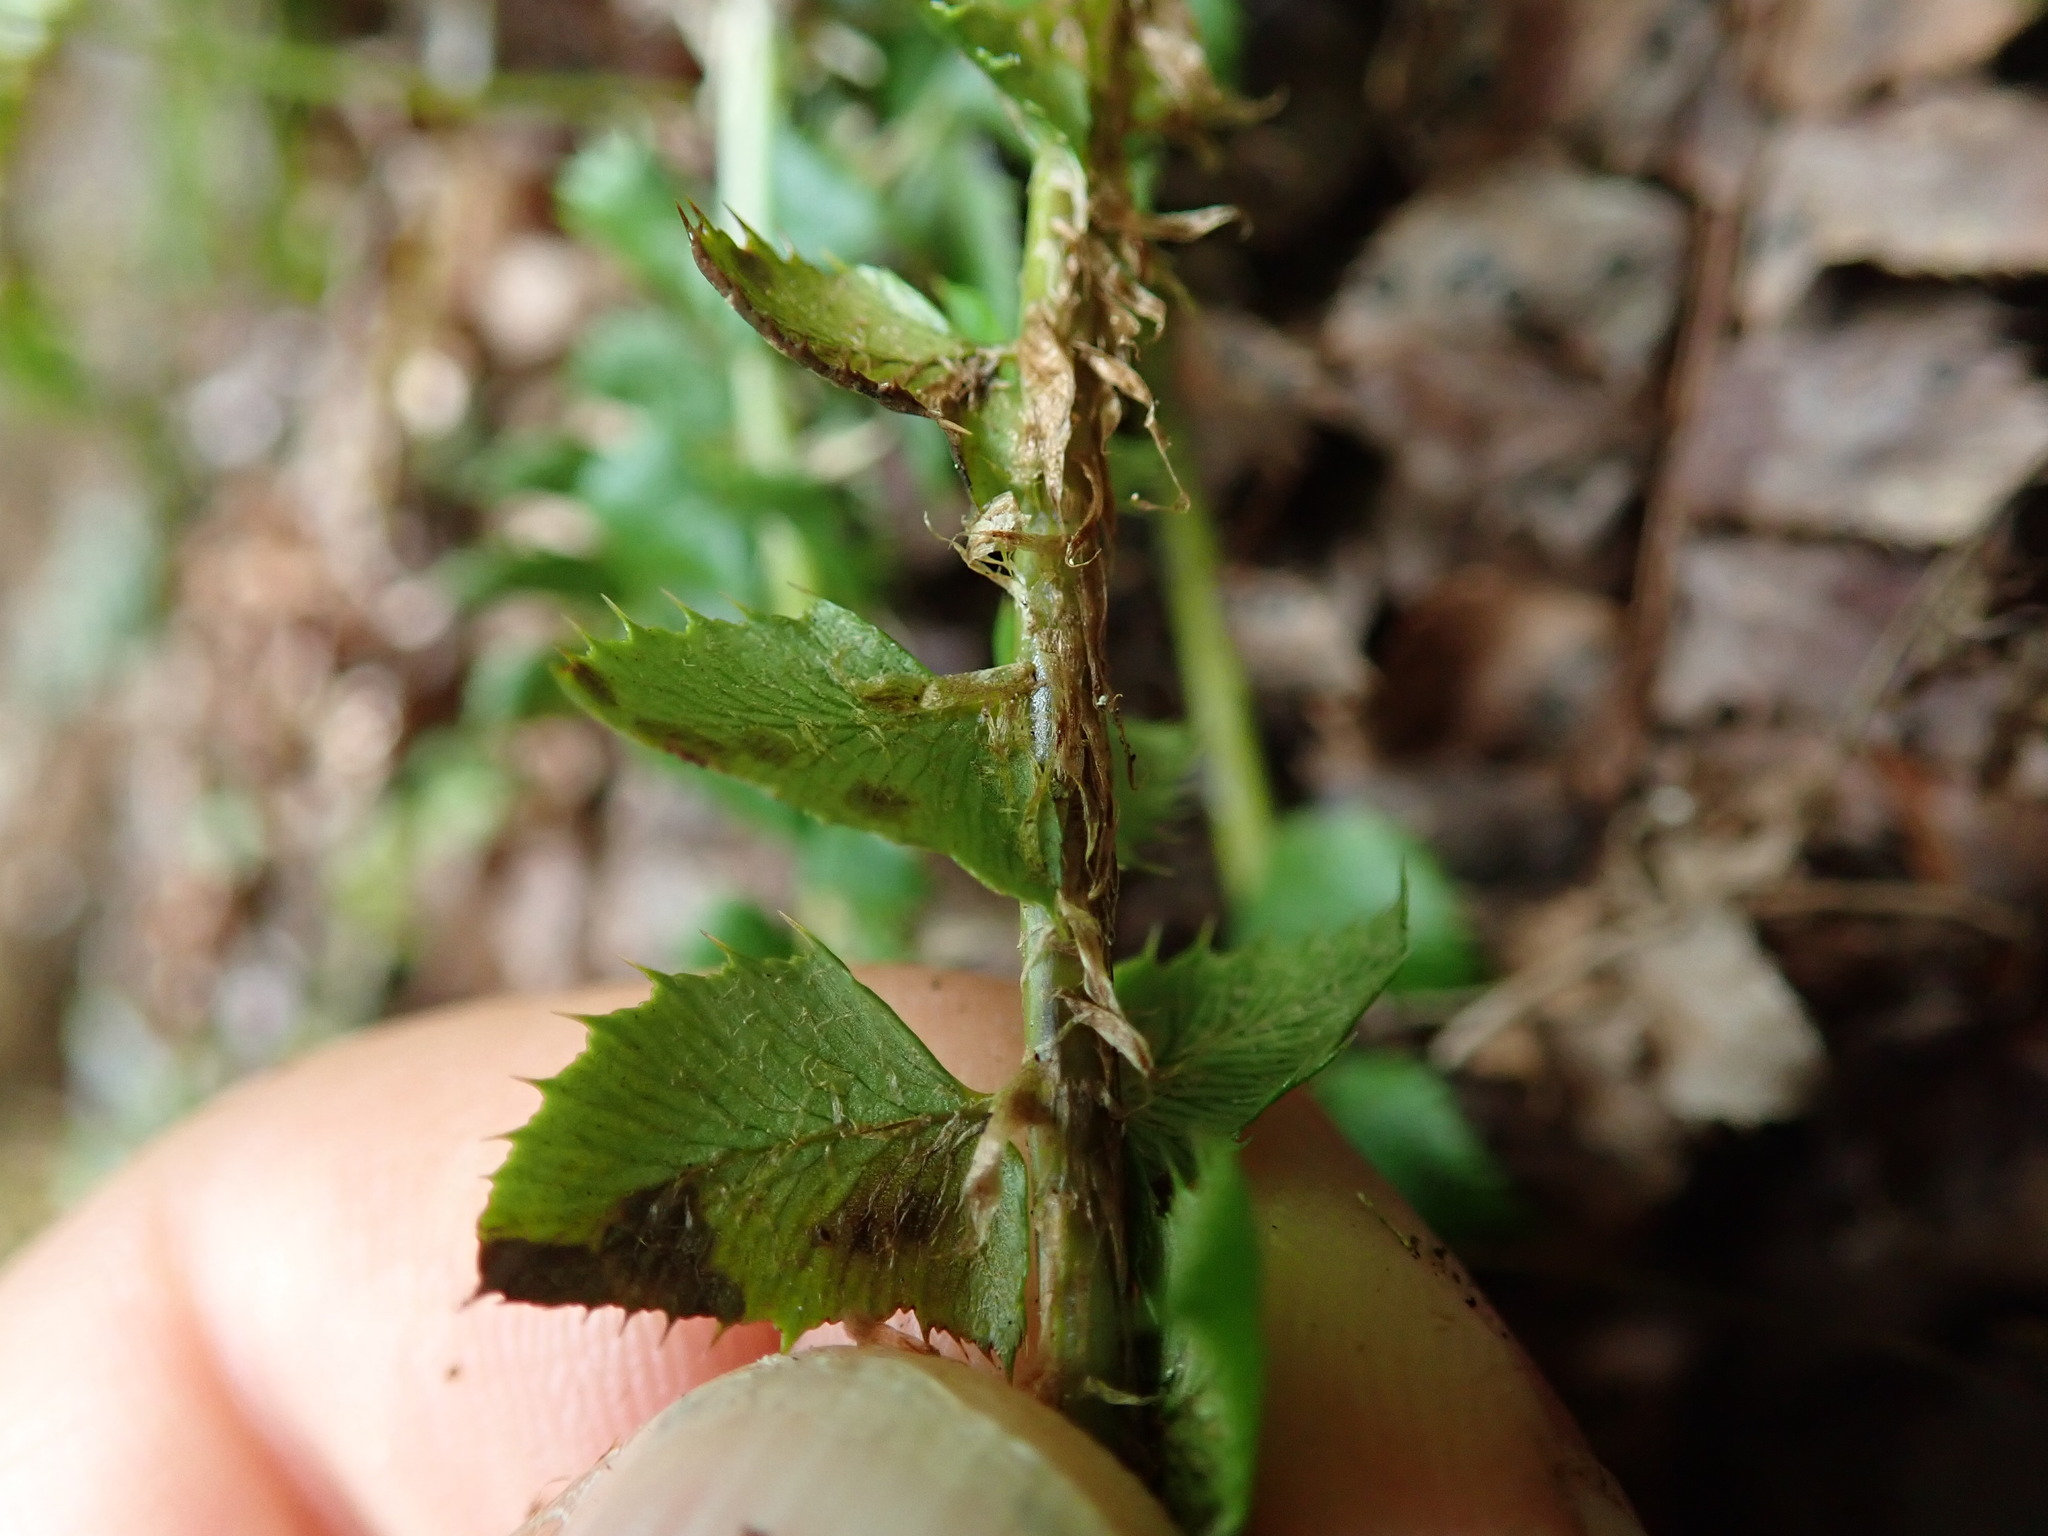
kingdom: Plantae
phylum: Tracheophyta
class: Polypodiopsida
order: Polypodiales
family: Dryopteridaceae
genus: Polystichum
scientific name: Polystichum lonchitis
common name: Holly fern
